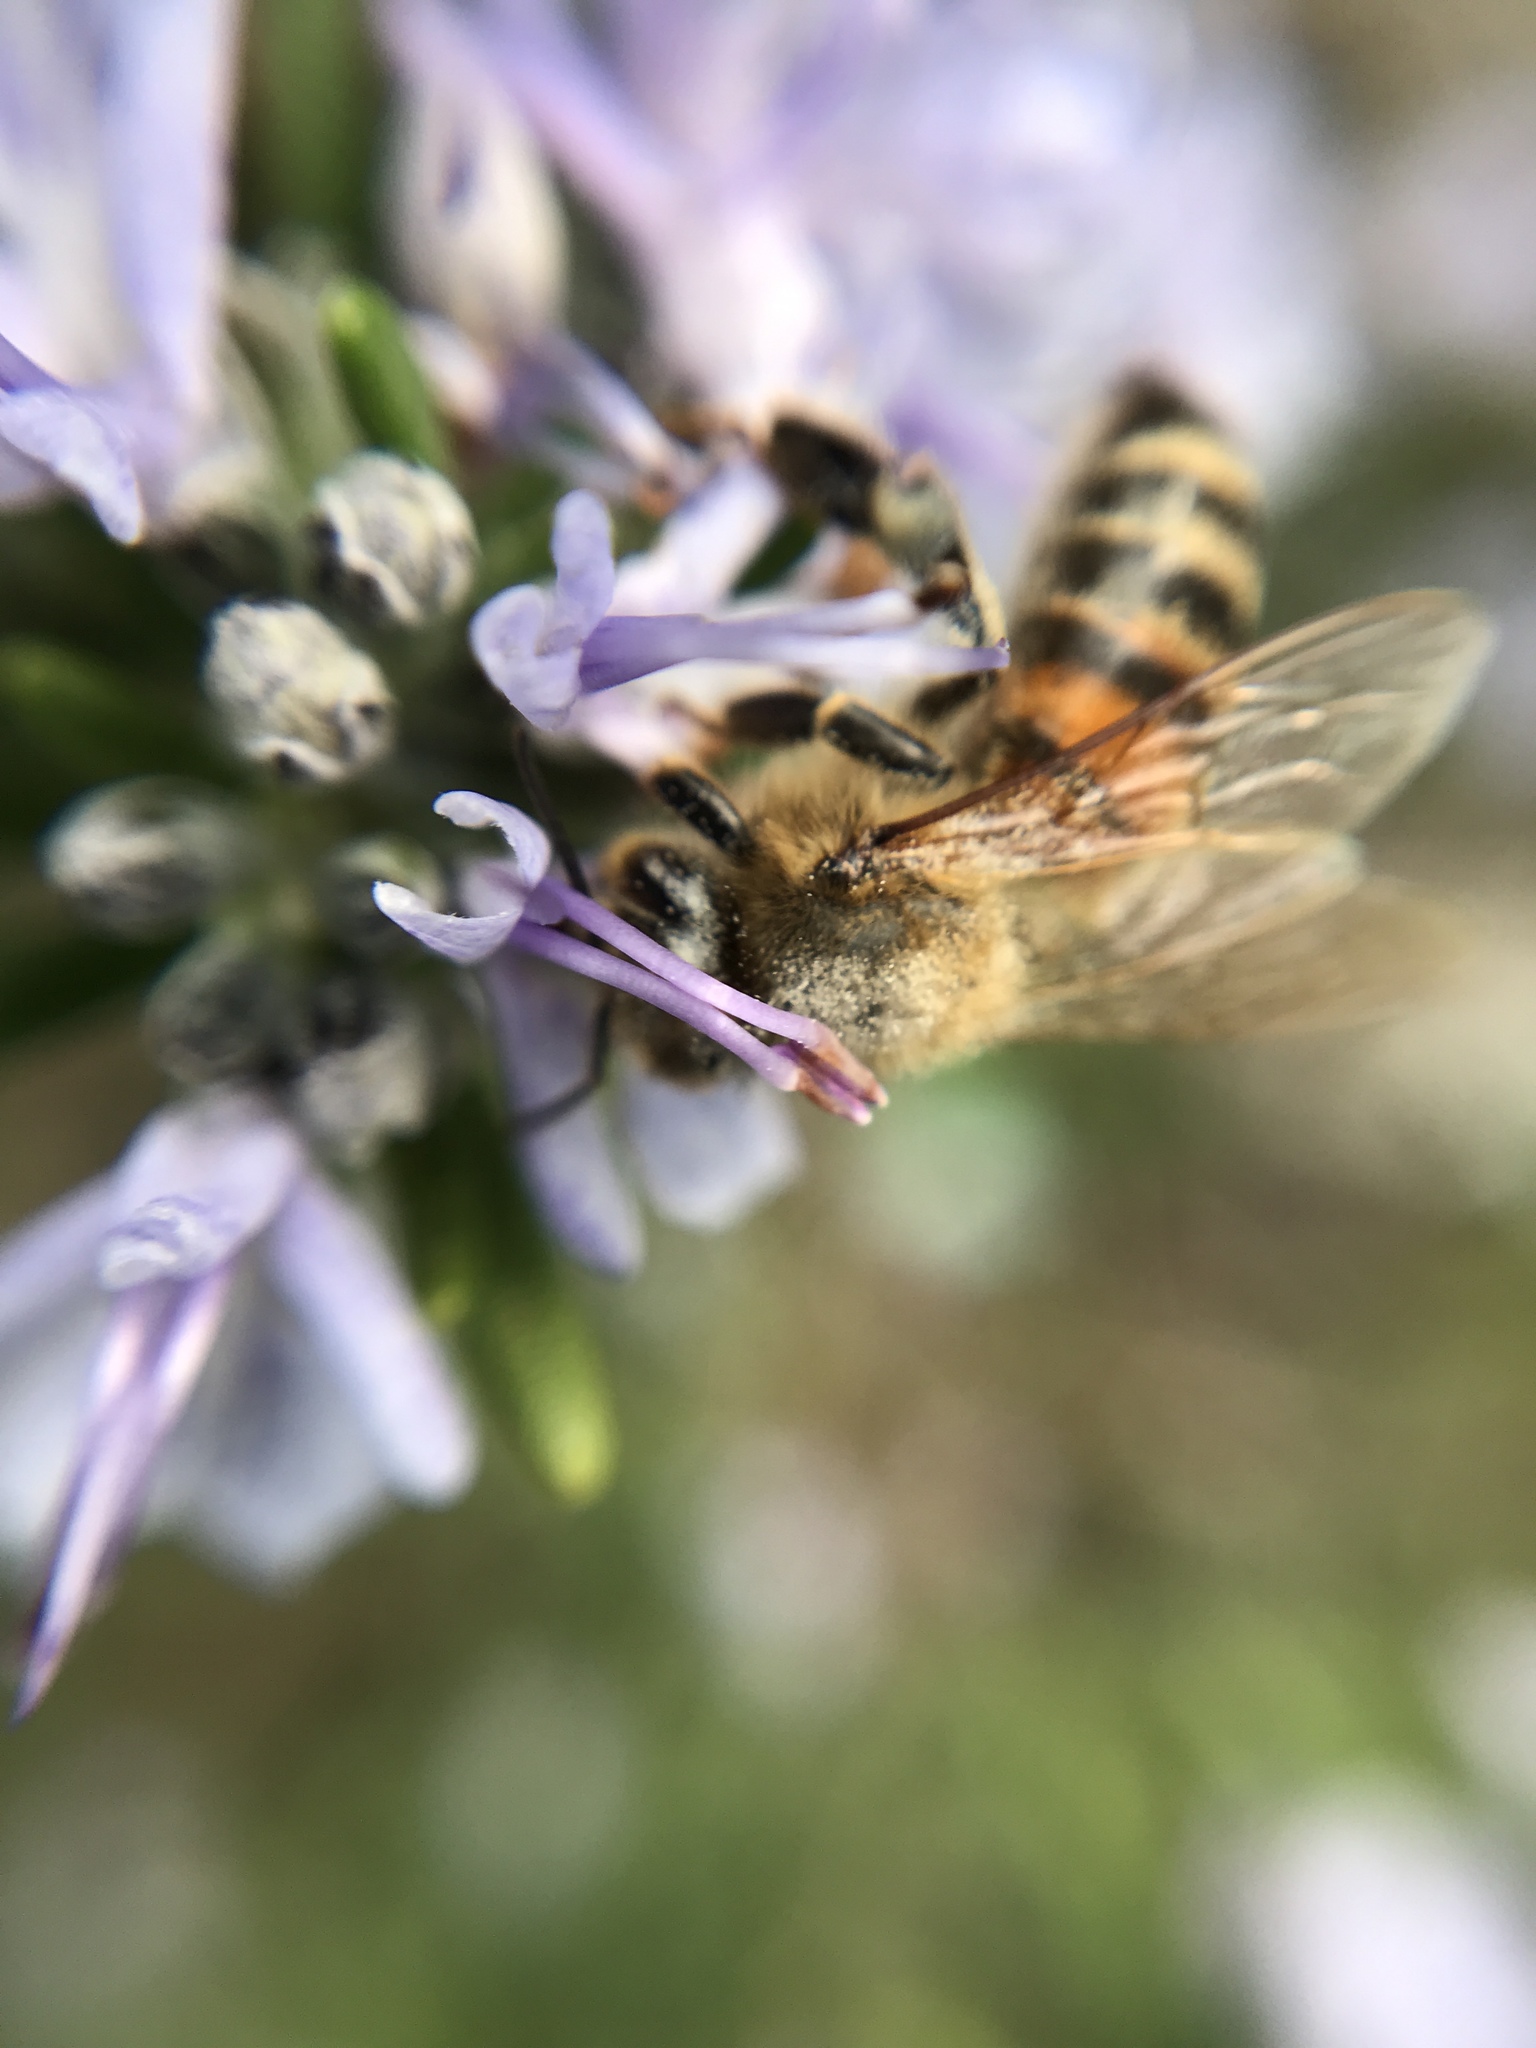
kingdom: Animalia
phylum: Arthropoda
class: Insecta
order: Hymenoptera
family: Apidae
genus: Apis
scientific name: Apis mellifera
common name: Honey bee
